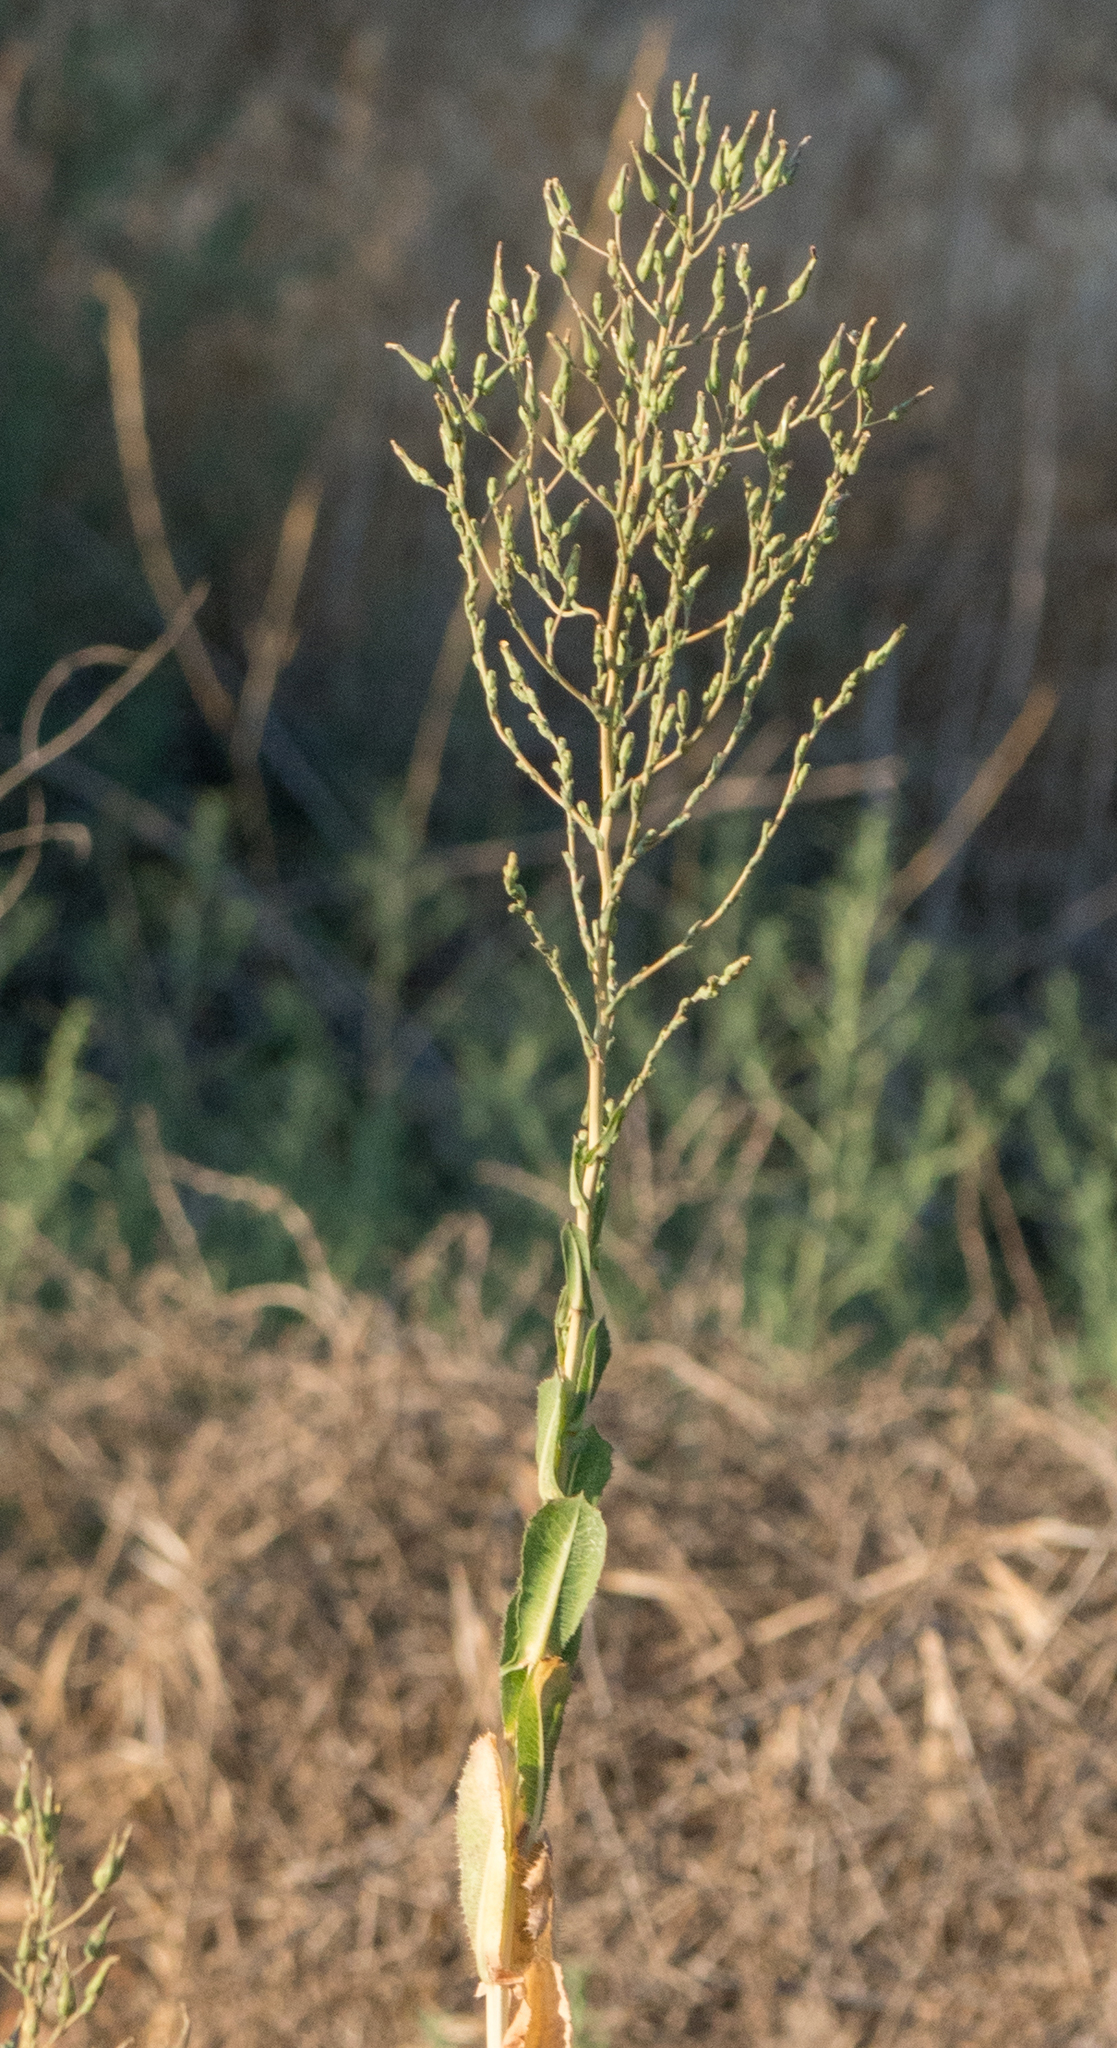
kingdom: Plantae
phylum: Tracheophyta
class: Magnoliopsida
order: Asterales
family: Asteraceae
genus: Lactuca
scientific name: Lactuca serriola
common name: Prickly lettuce
